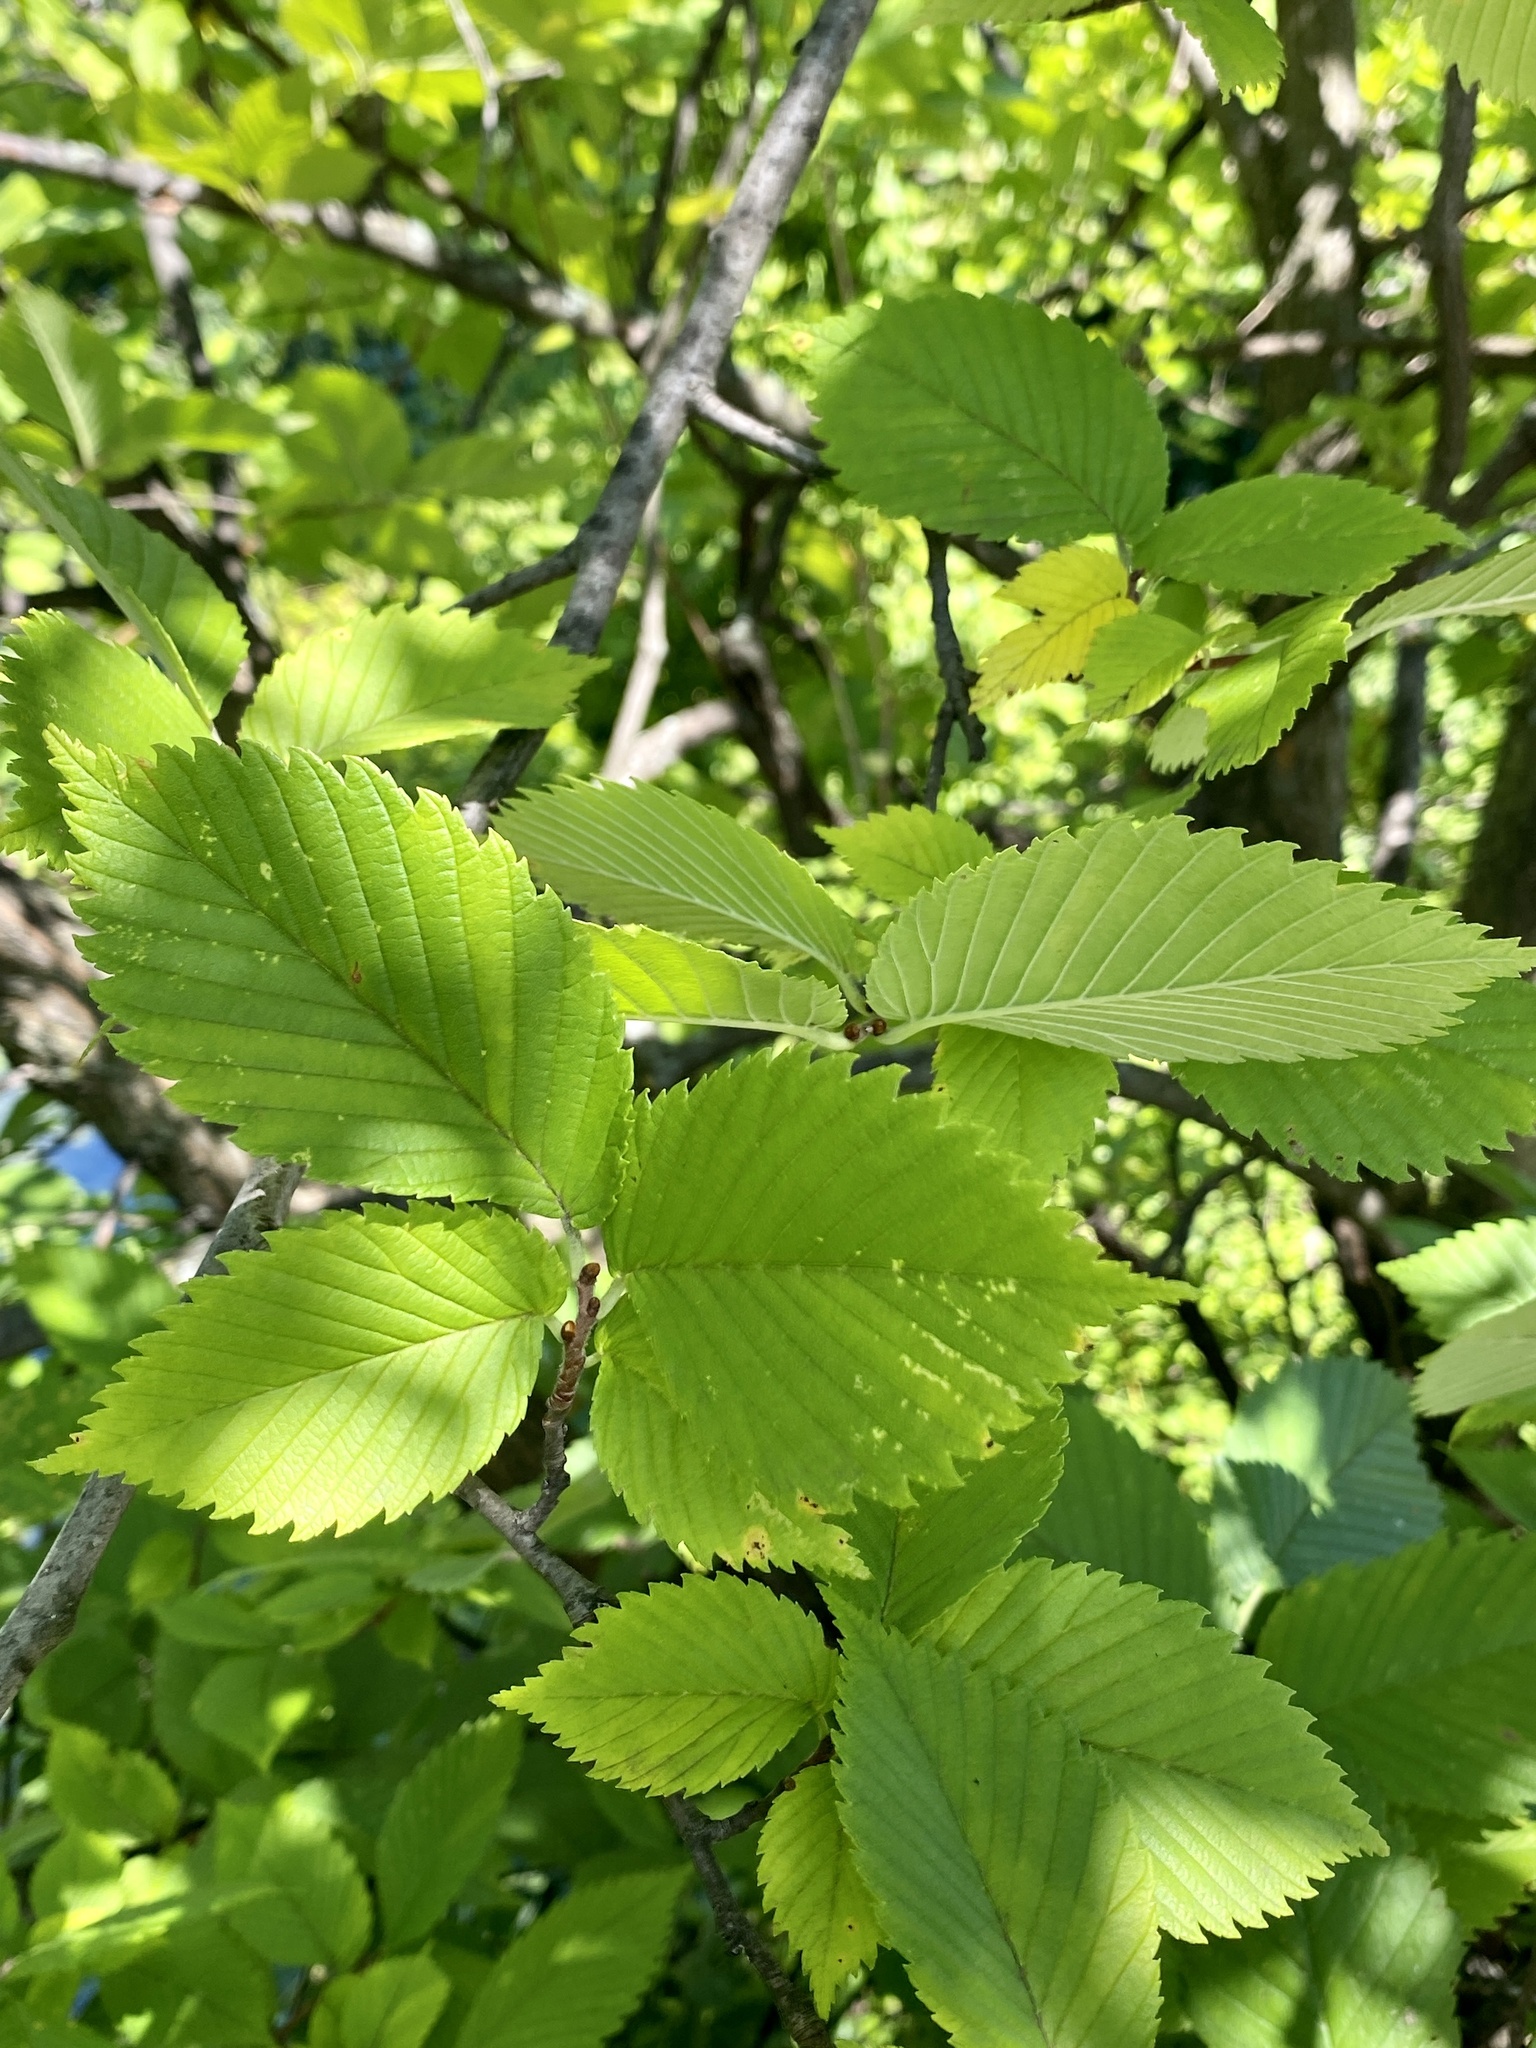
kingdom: Plantae
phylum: Tracheophyta
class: Magnoliopsida
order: Rosales
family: Ulmaceae
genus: Ulmus
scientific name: Ulmus americana
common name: American elm
